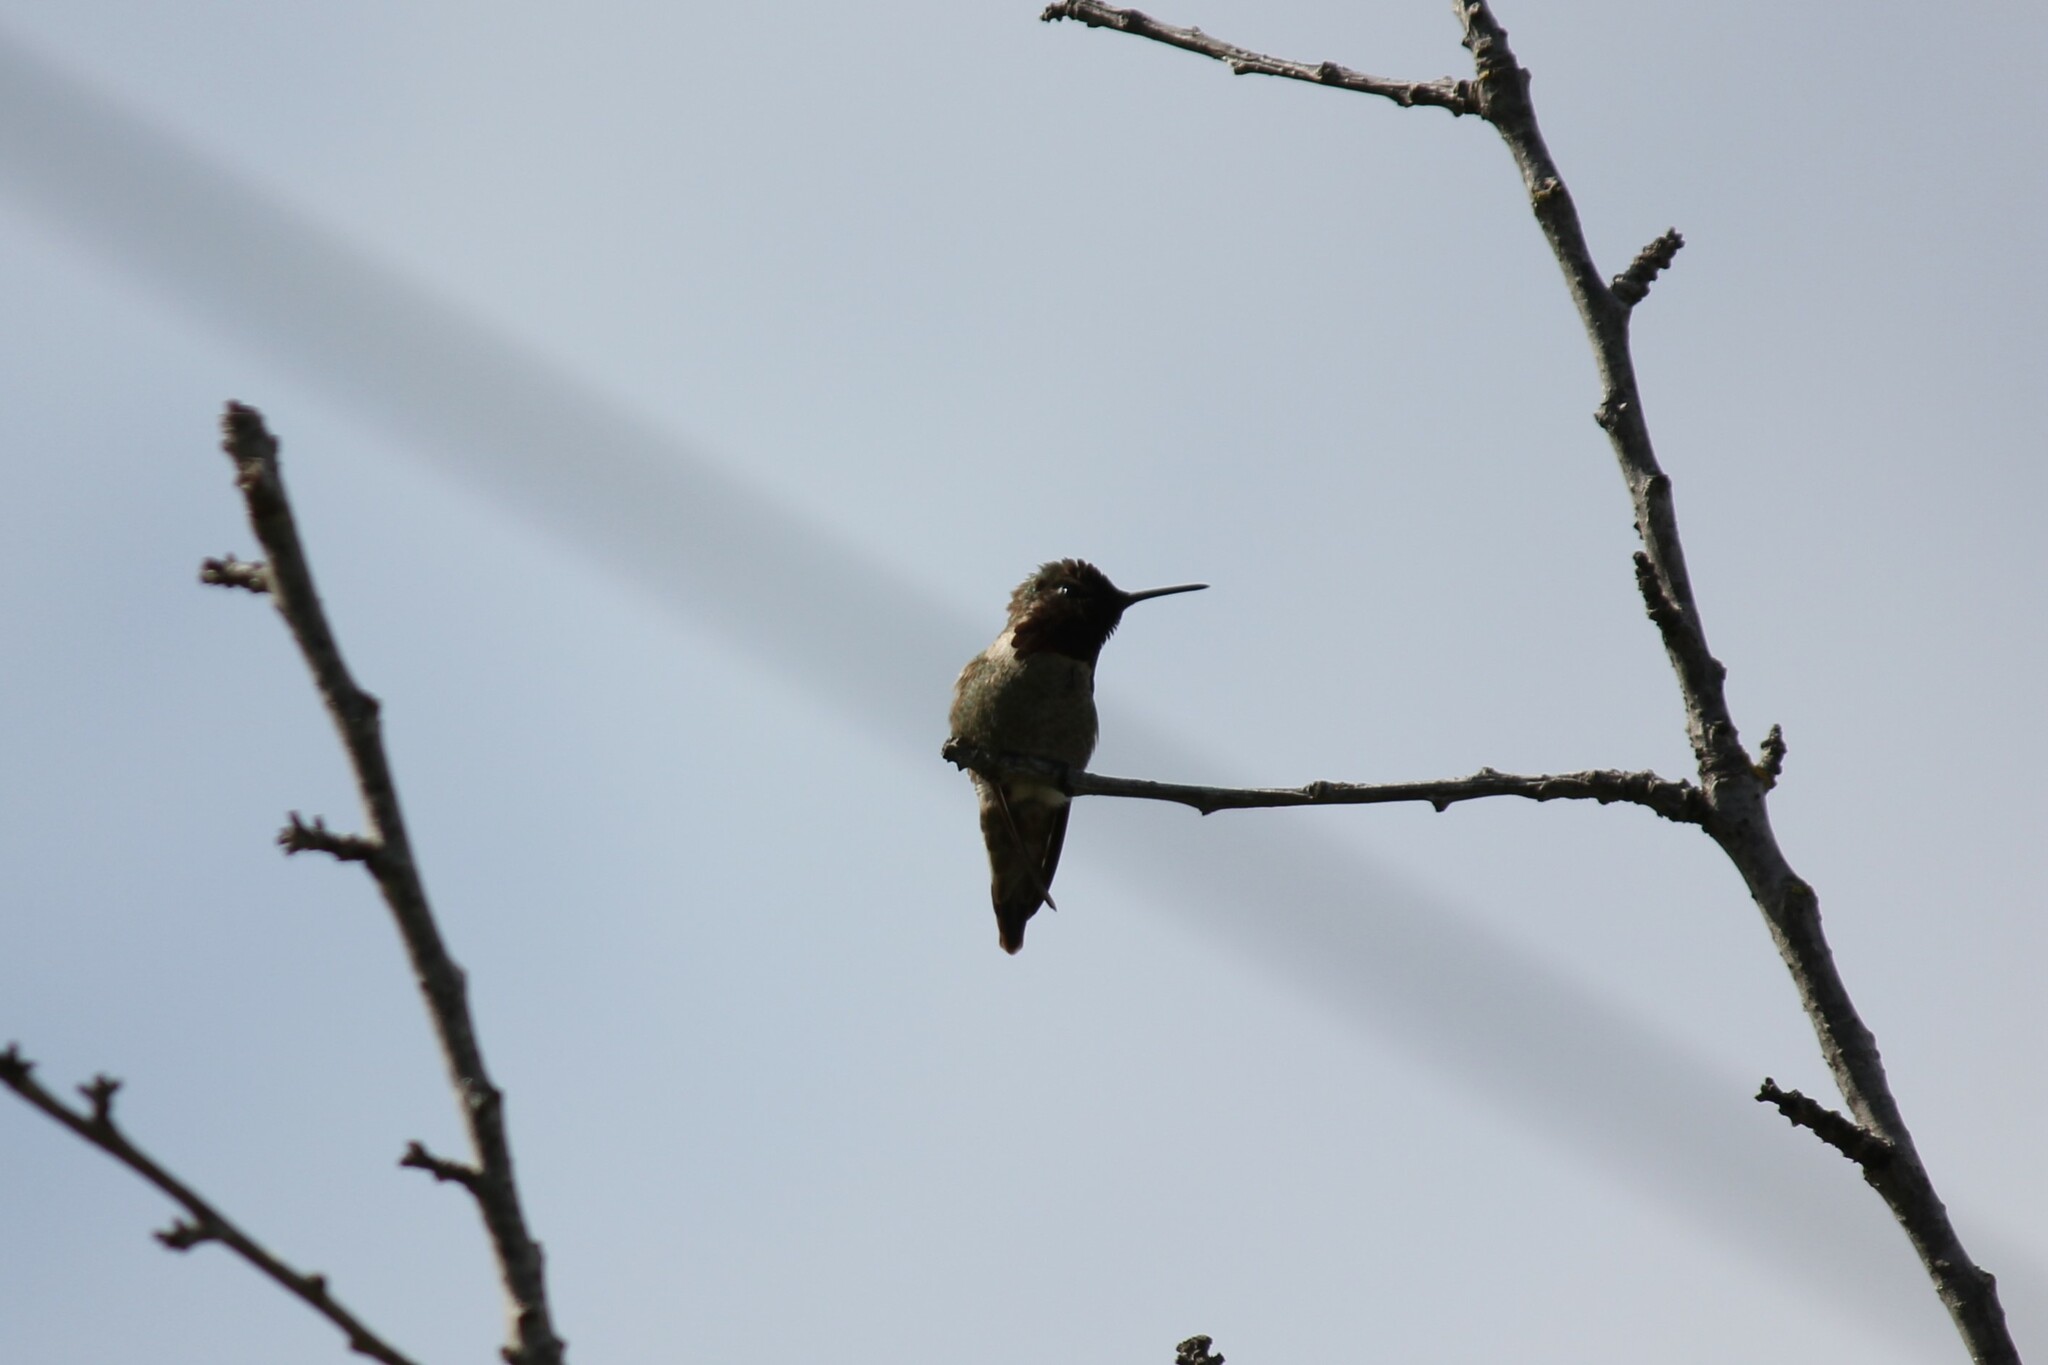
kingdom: Animalia
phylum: Chordata
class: Aves
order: Apodiformes
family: Trochilidae
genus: Calypte
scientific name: Calypte anna
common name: Anna's hummingbird
